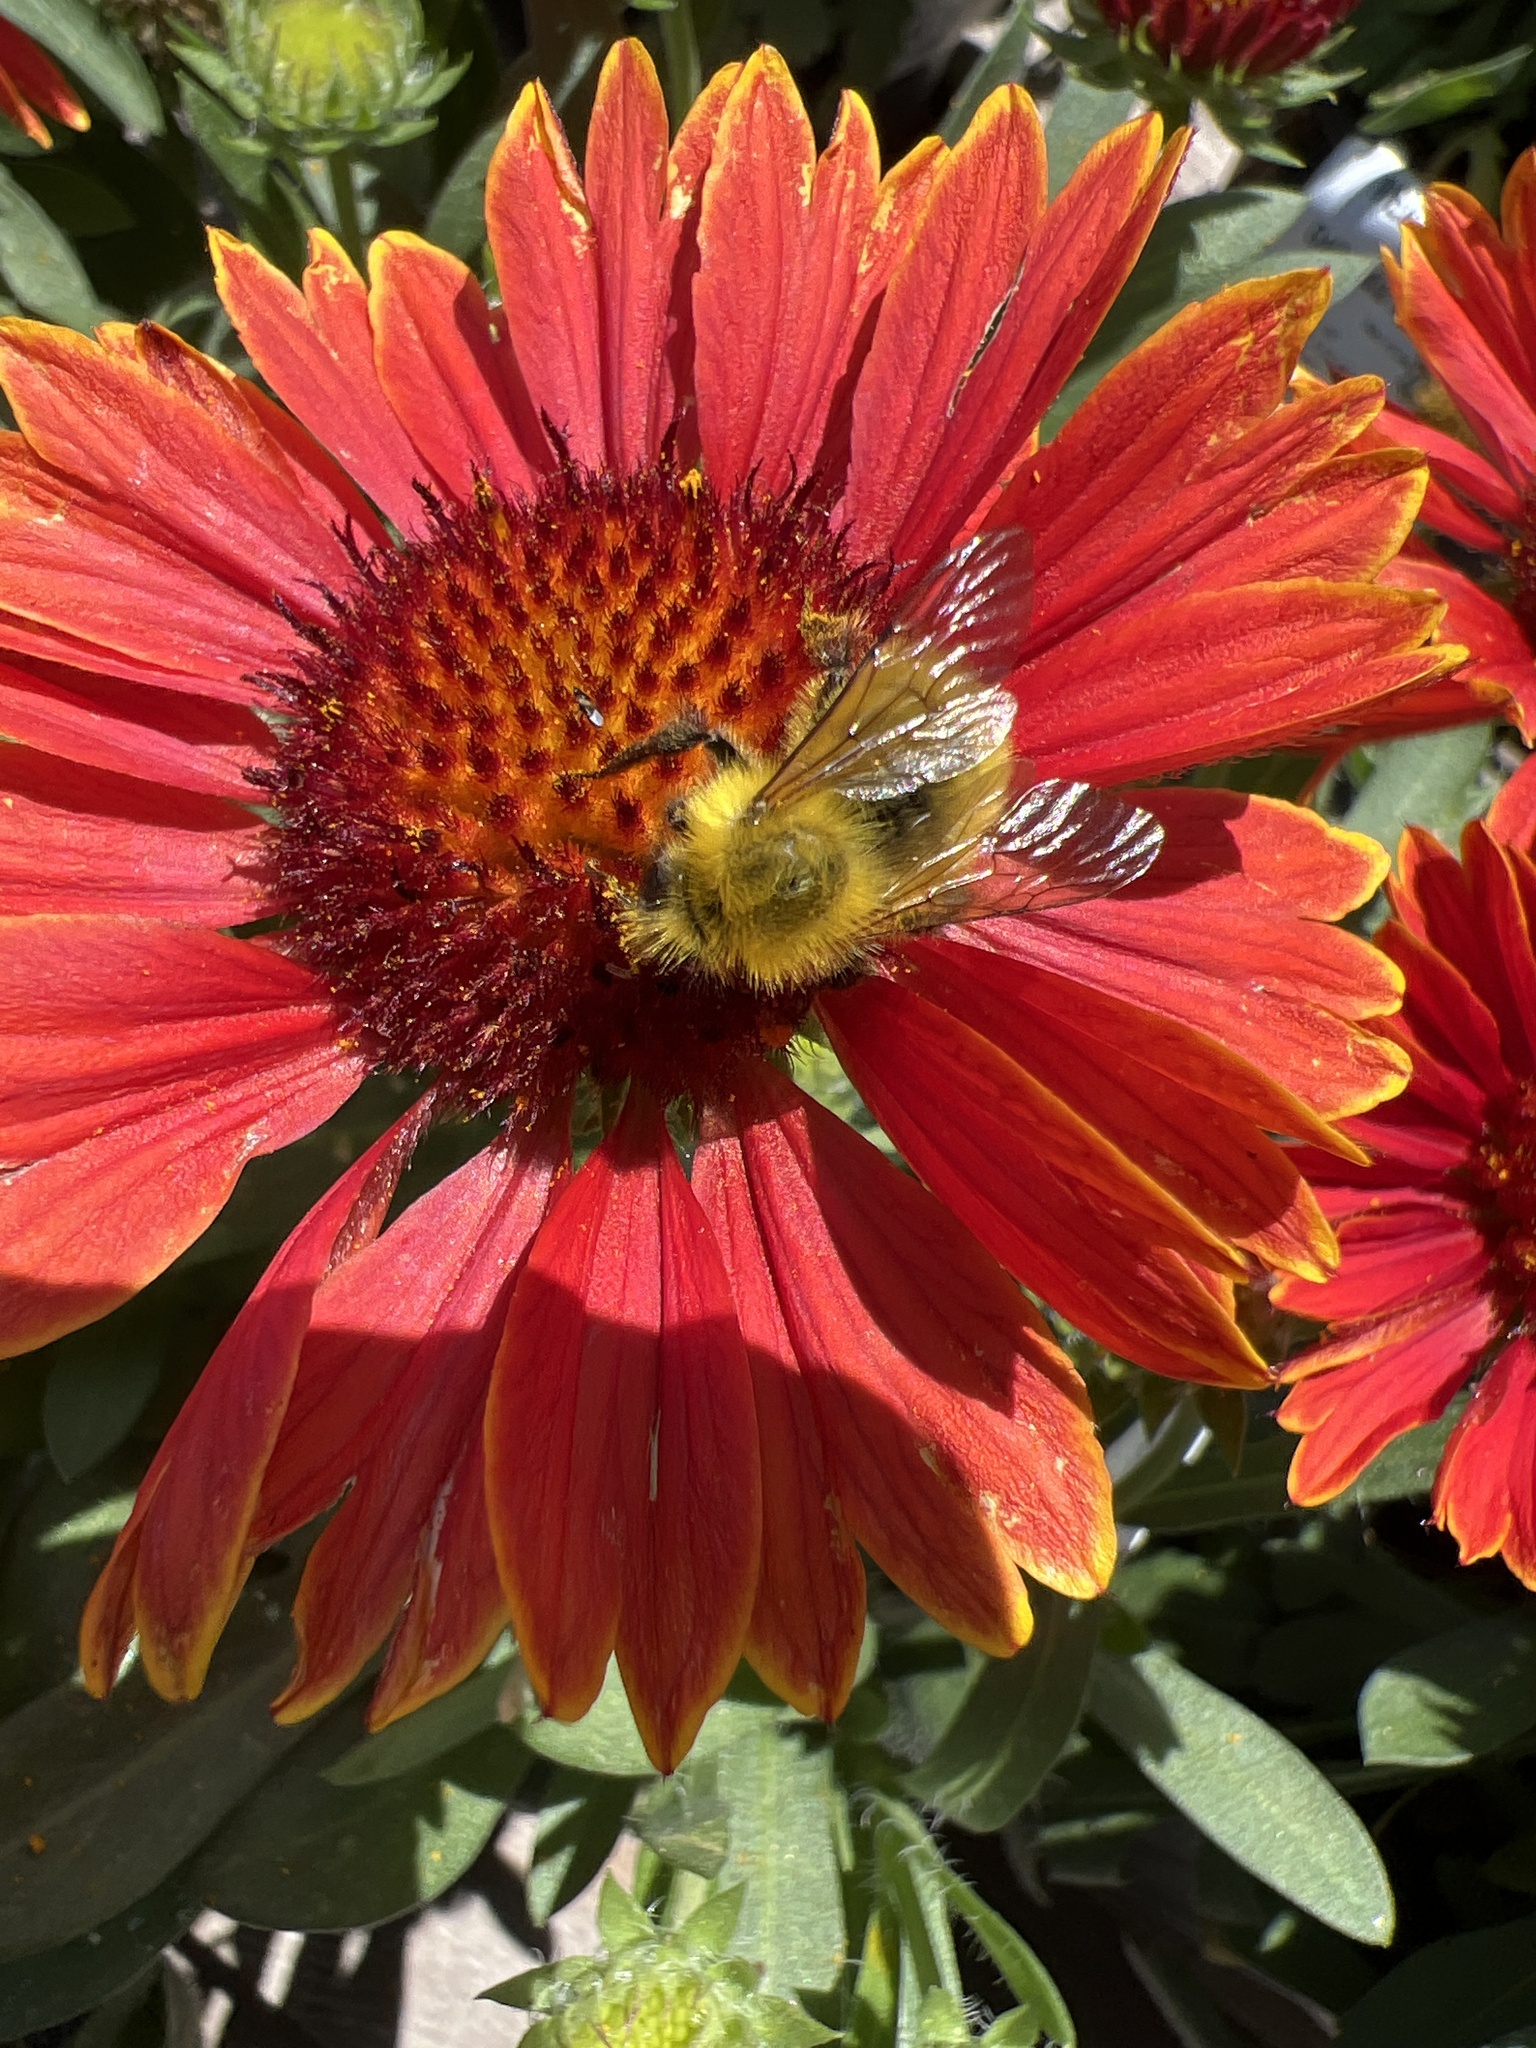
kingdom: Animalia
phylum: Arthropoda
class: Insecta
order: Hymenoptera
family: Apidae
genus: Bombus
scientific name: Bombus perplexus
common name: Confusing bumble bee
